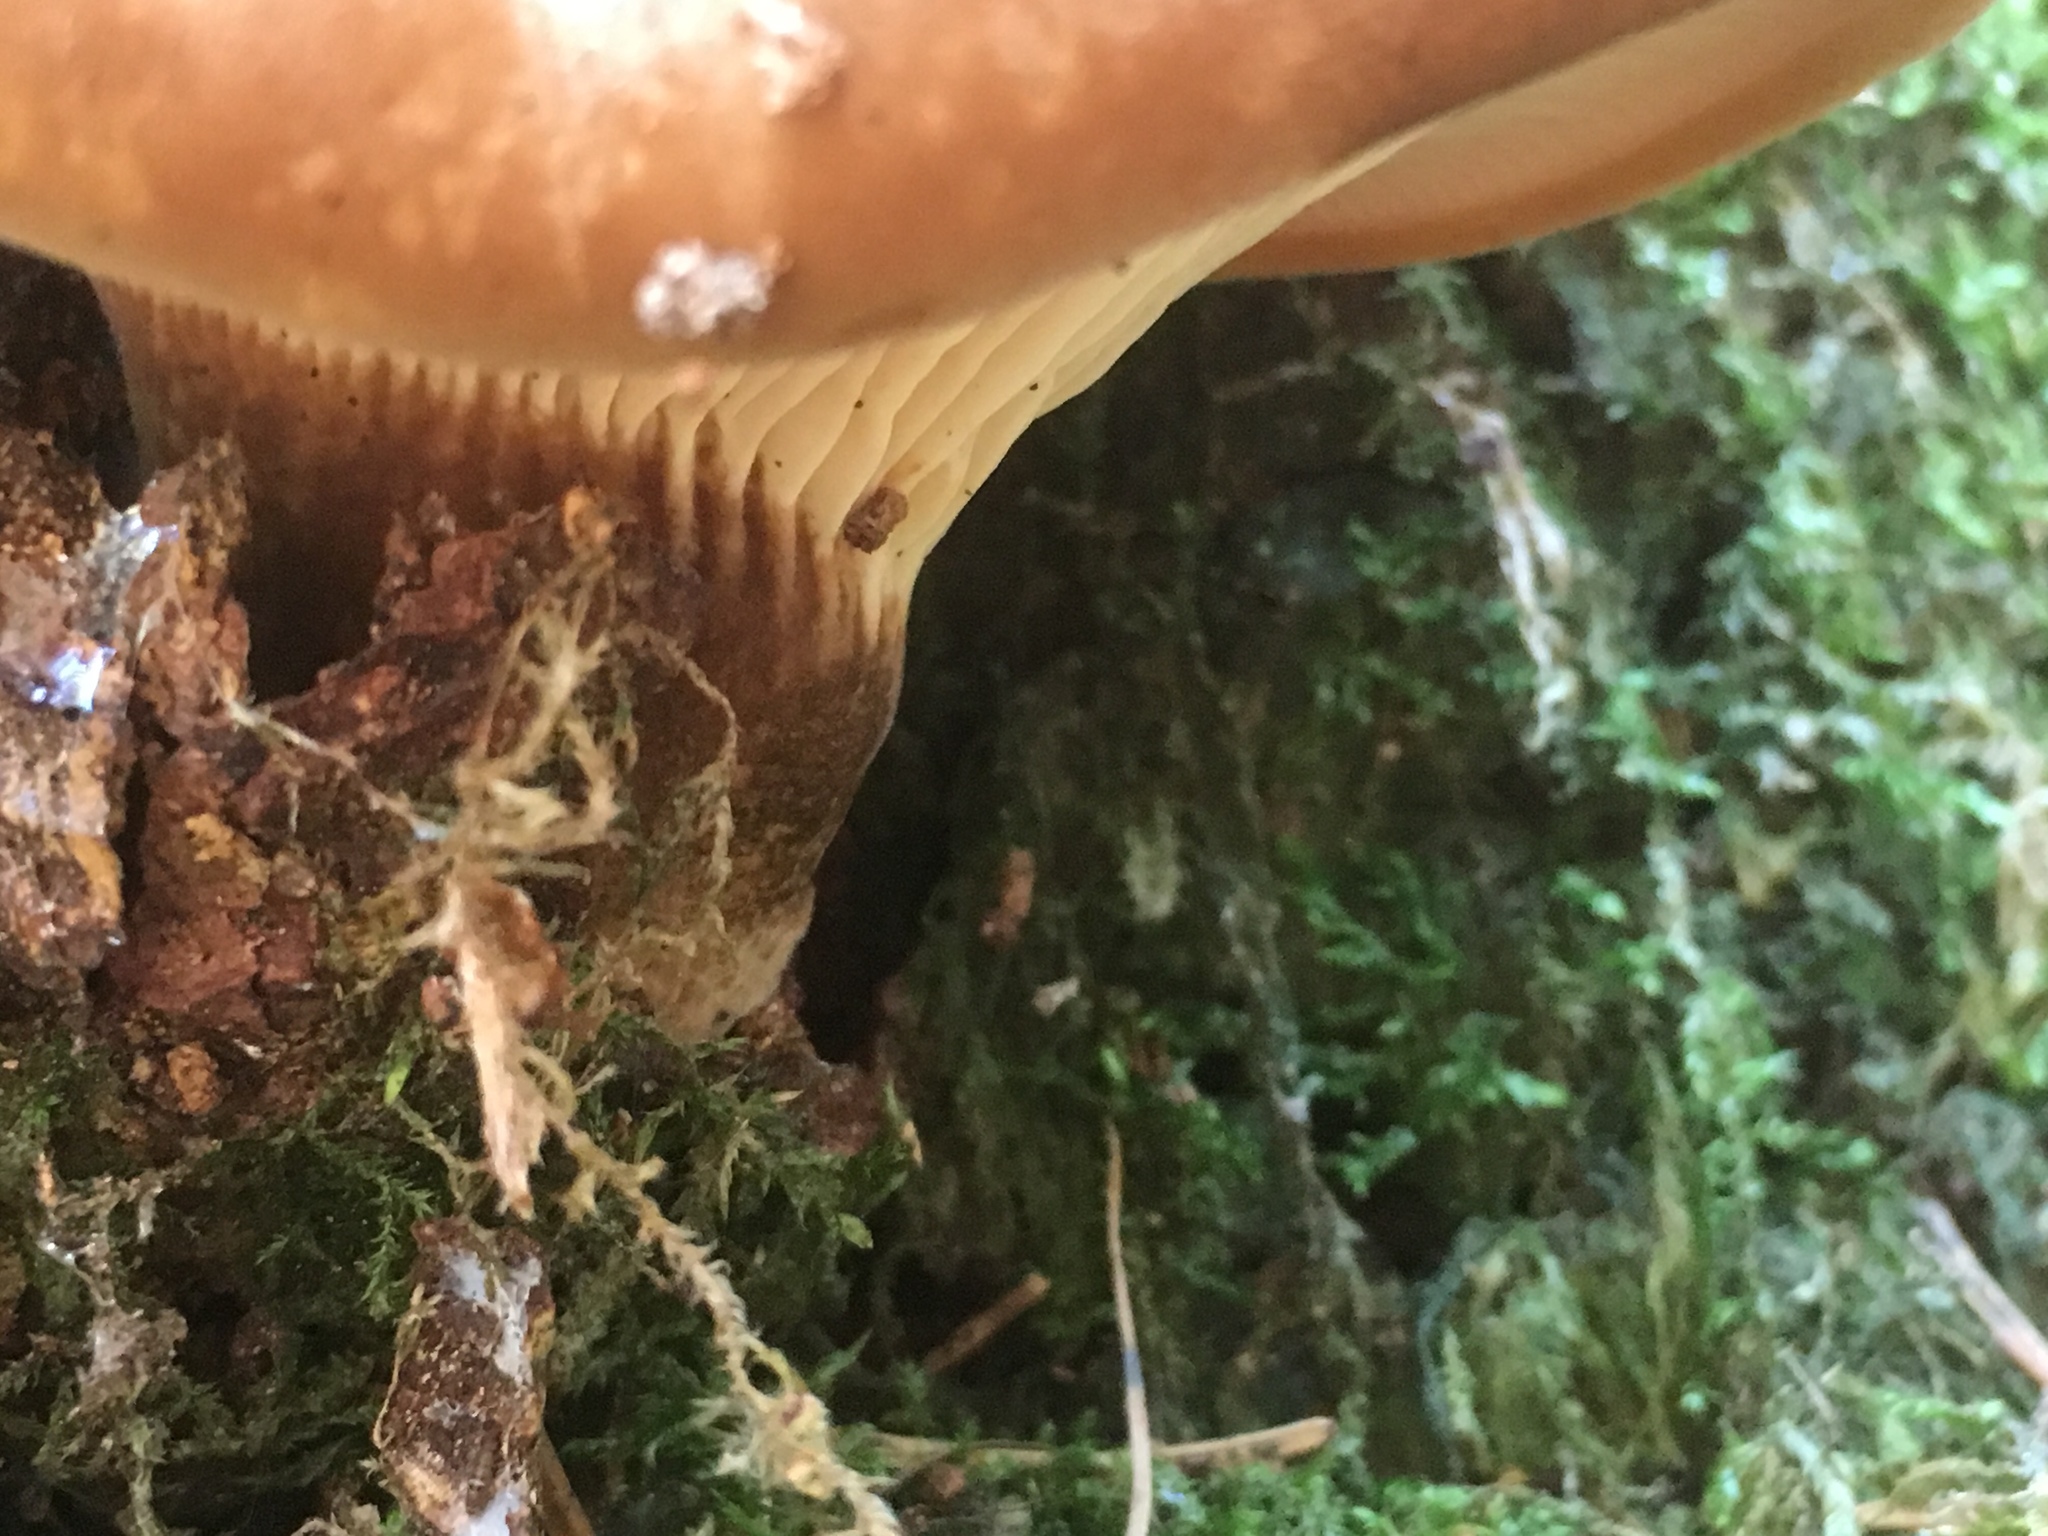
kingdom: Fungi
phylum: Basidiomycota
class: Agaricomycetes
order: Boletales
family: Tapinellaceae
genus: Tapinella
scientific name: Tapinella atrotomentosa
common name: Velvet rollrim
